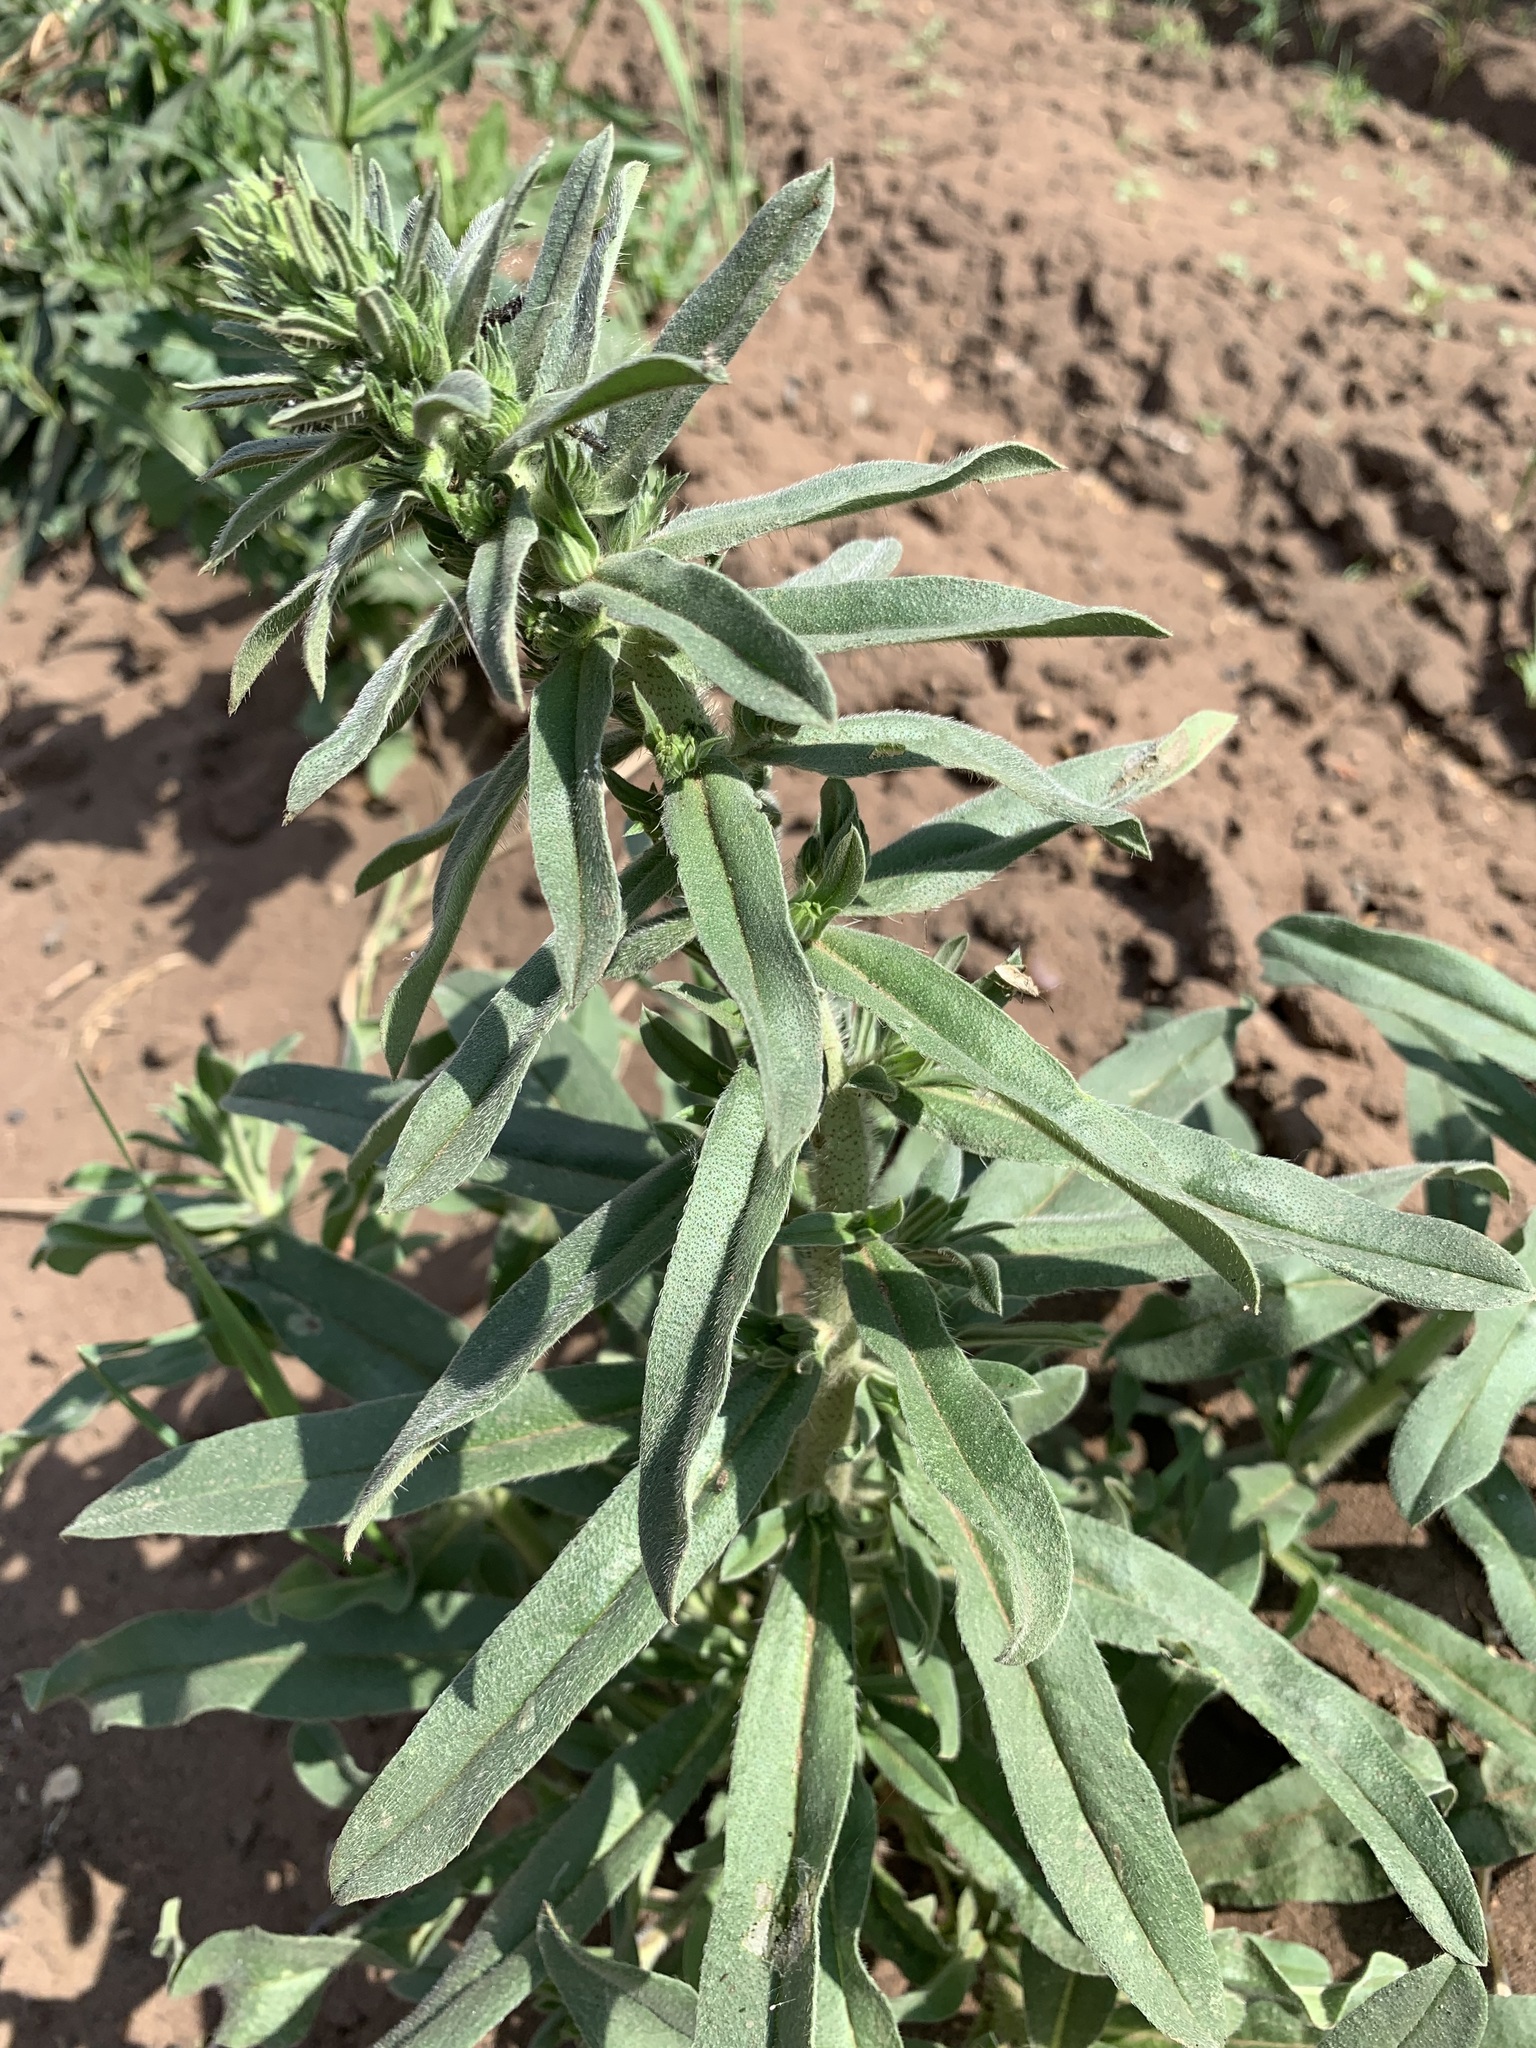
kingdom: Plantae
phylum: Tracheophyta
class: Magnoliopsida
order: Boraginales
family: Boraginaceae
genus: Echium
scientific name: Echium vulgare
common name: Common viper's bugloss
